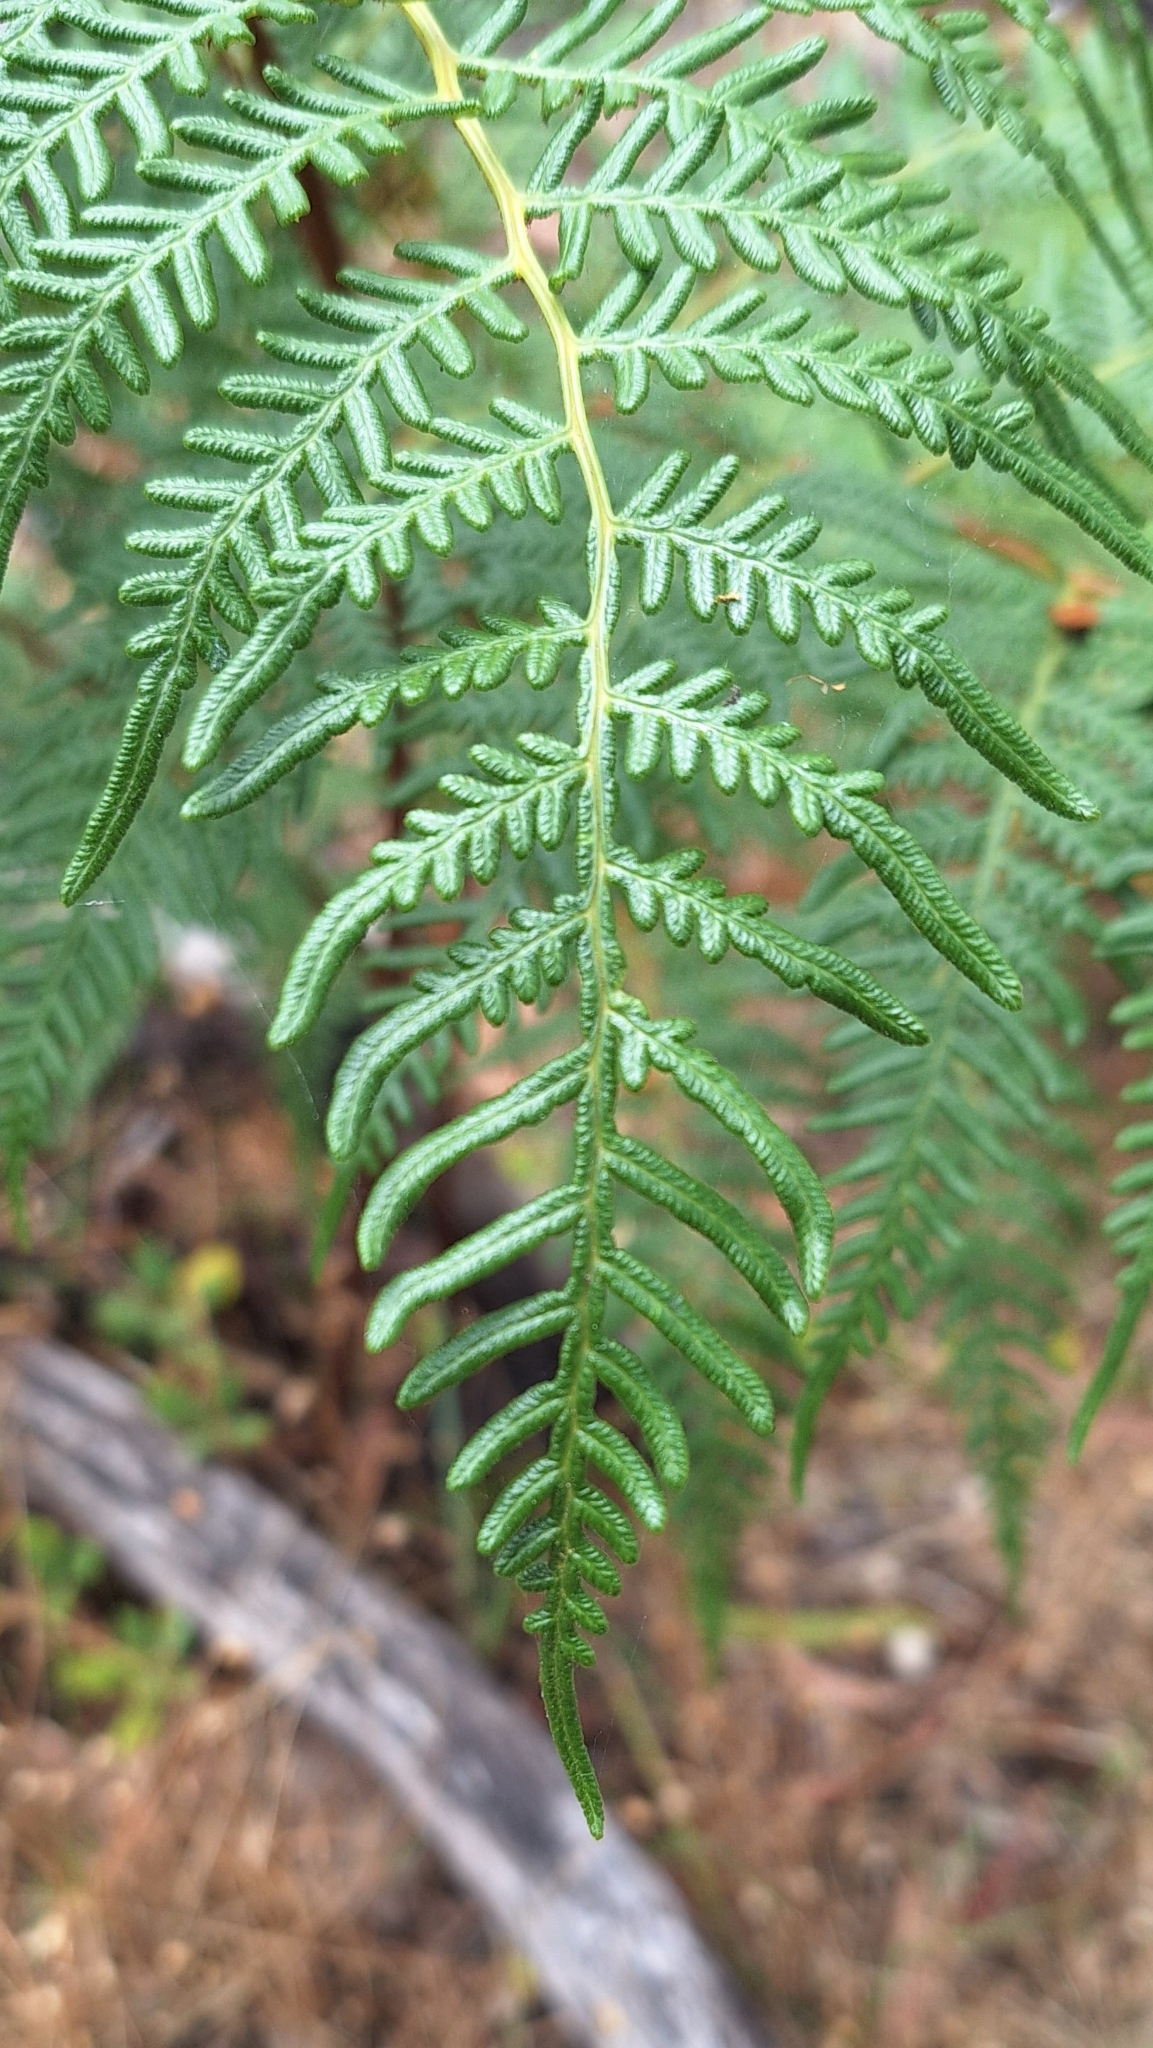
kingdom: Plantae
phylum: Tracheophyta
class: Polypodiopsida
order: Polypodiales
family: Dennstaedtiaceae
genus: Pteridium
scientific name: Pteridium esculentum
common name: Bracken fern
